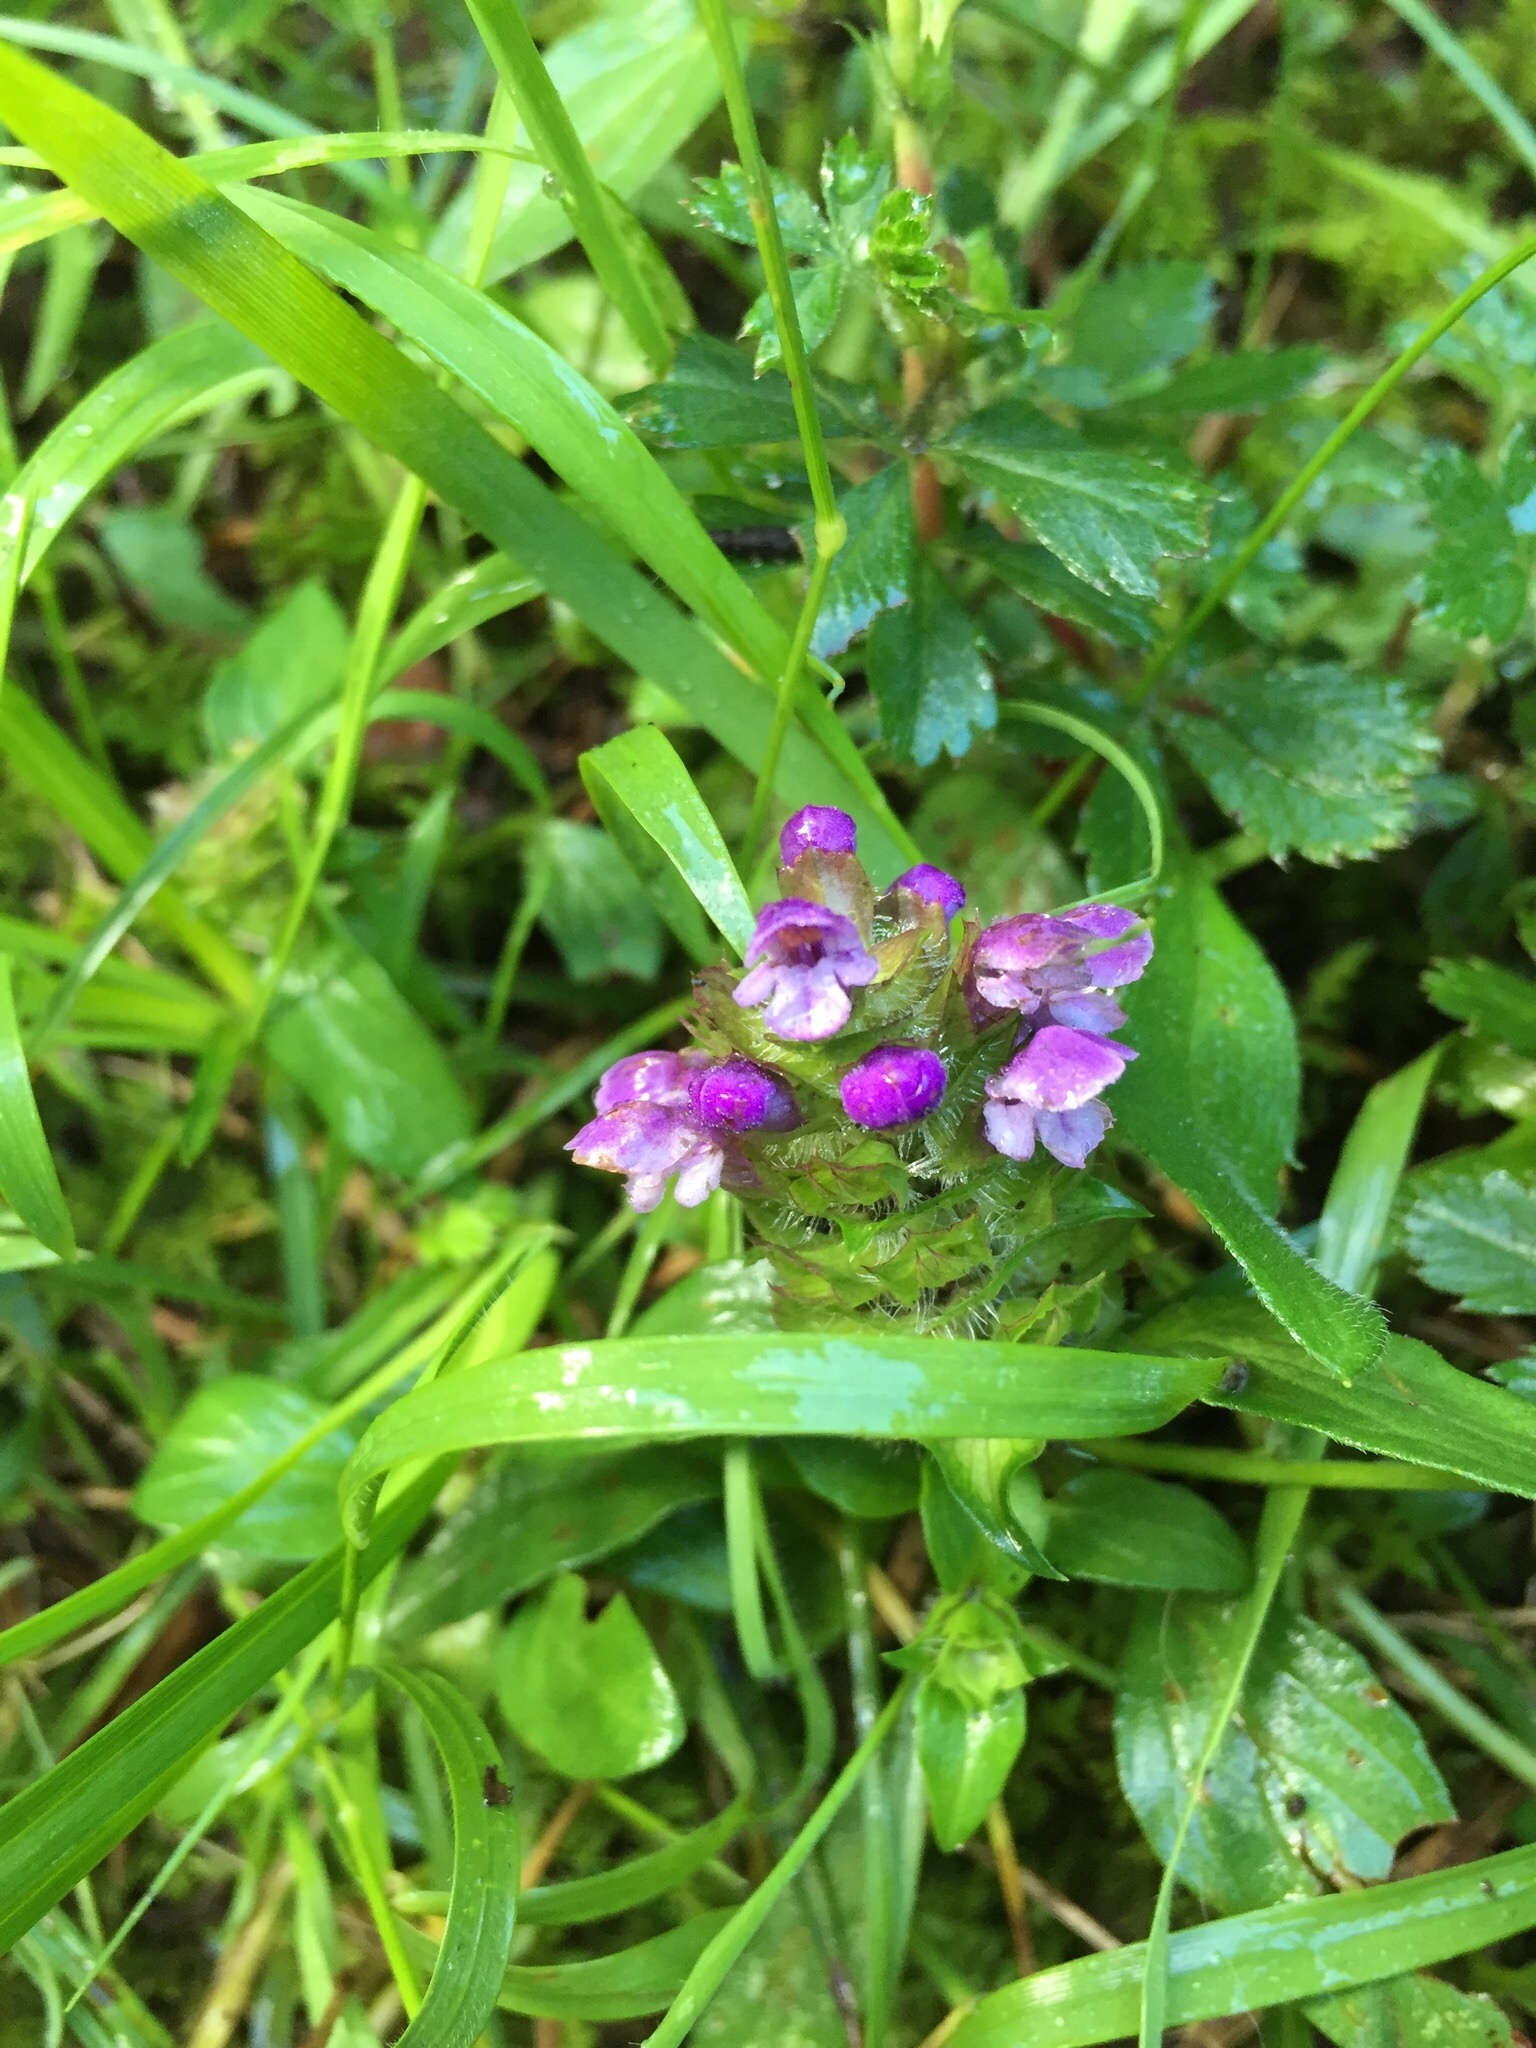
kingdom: Plantae
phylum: Tracheophyta
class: Magnoliopsida
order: Lamiales
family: Lamiaceae
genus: Prunella
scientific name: Prunella vulgaris
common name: Heal-all
